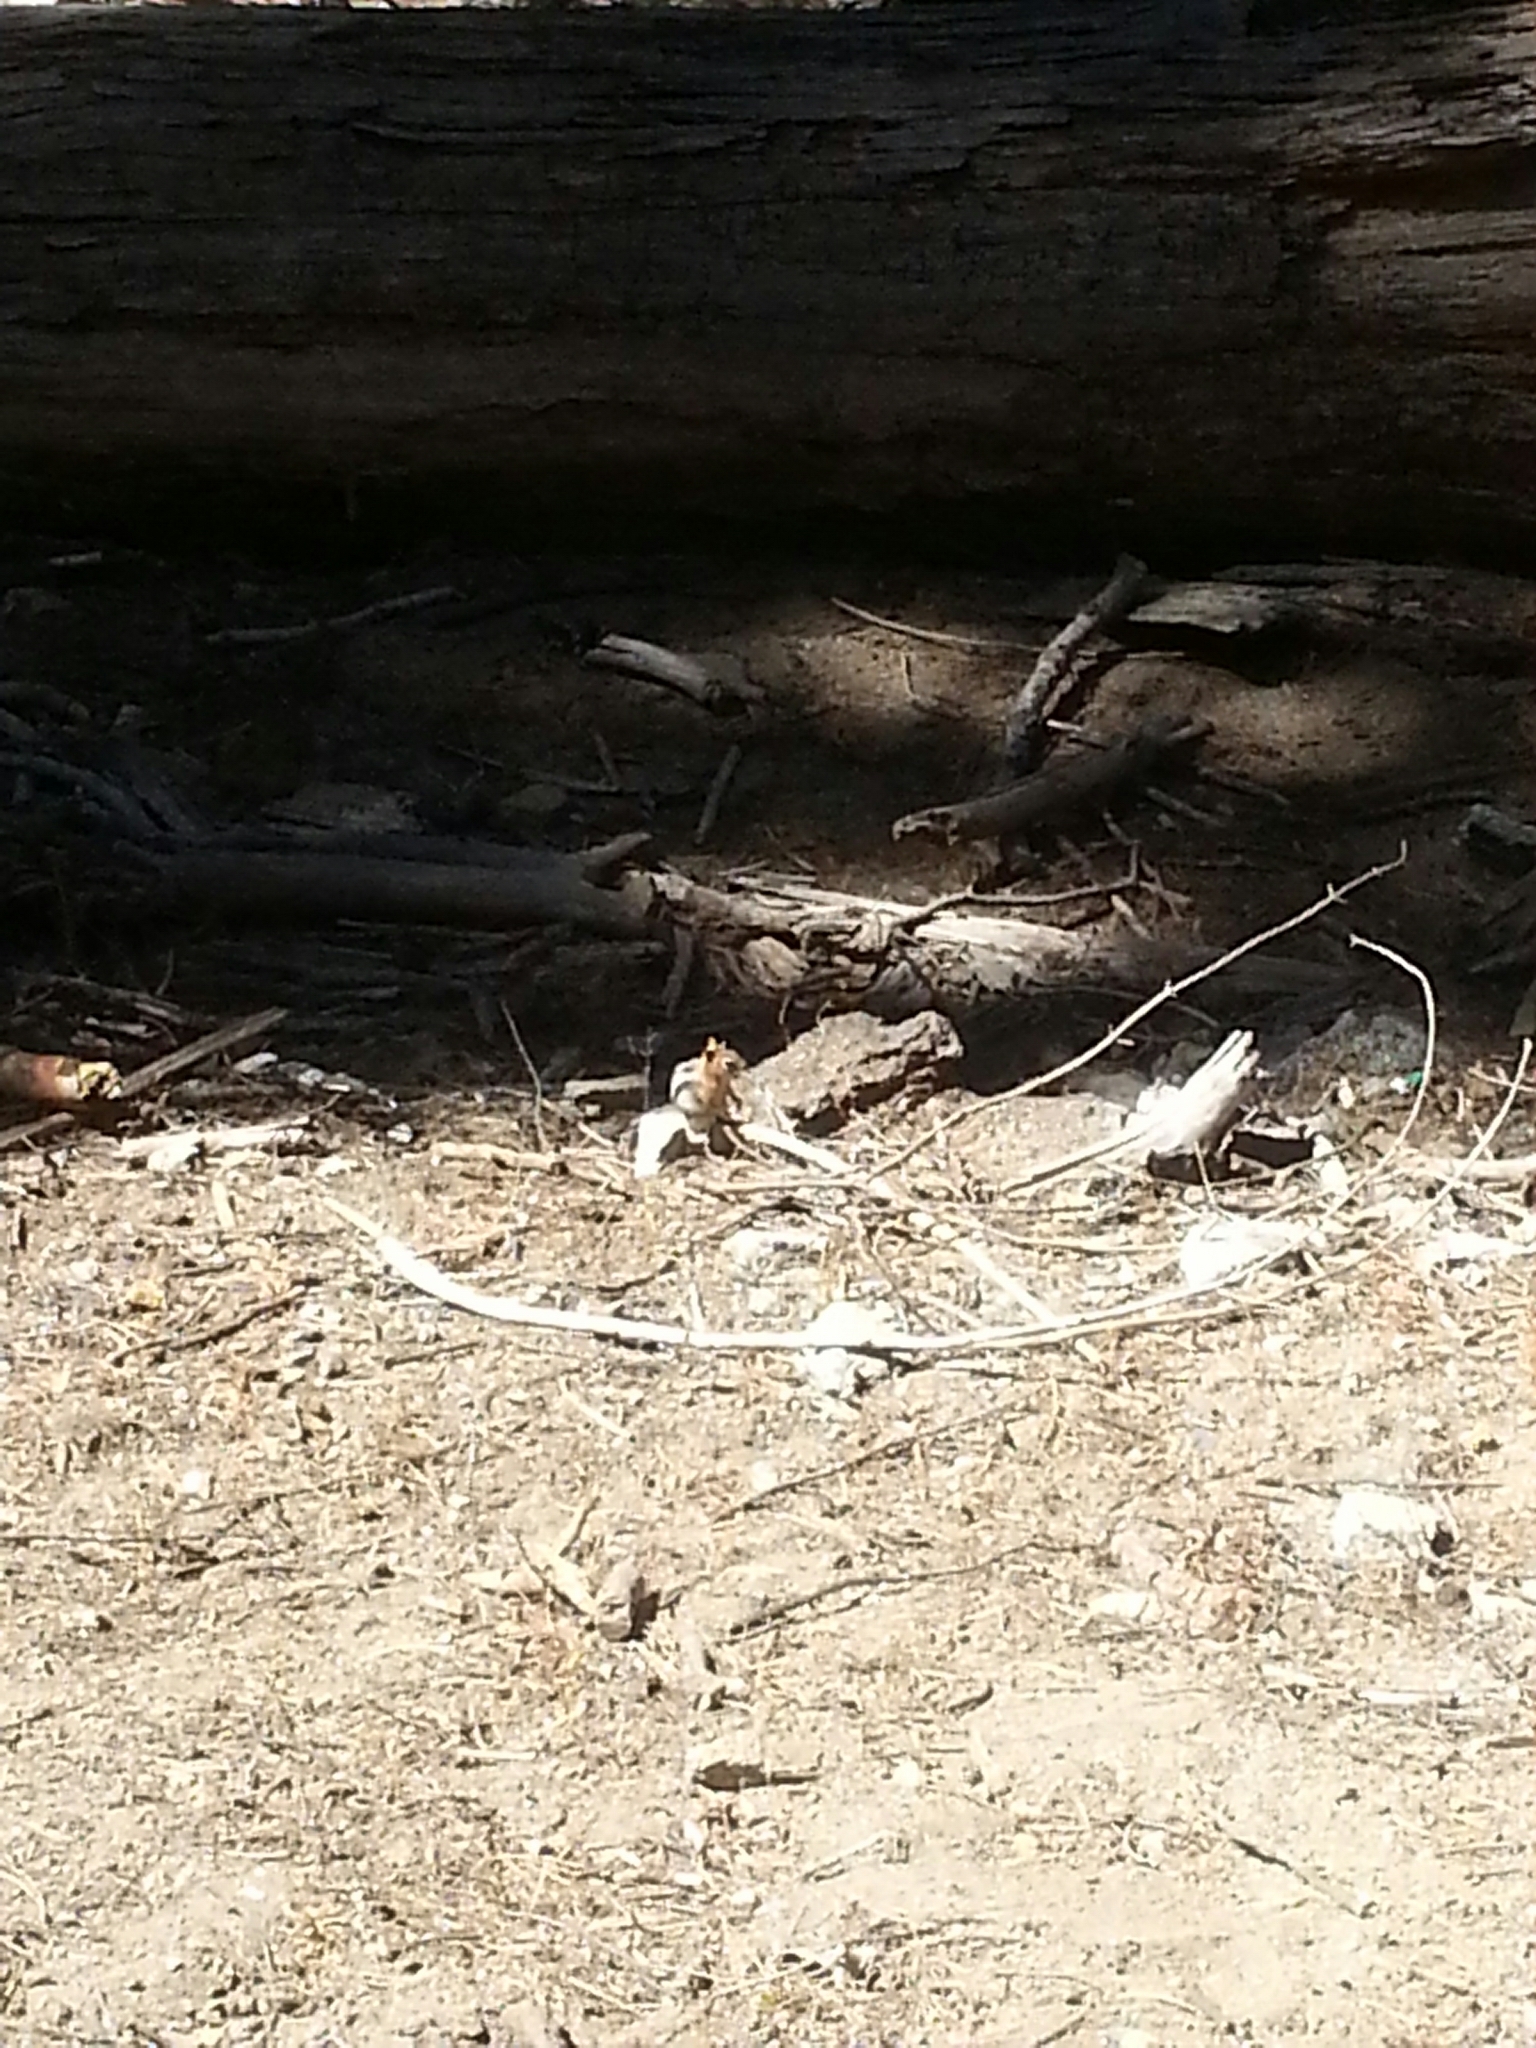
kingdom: Animalia
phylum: Chordata
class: Mammalia
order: Rodentia
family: Sciuridae
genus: Callospermophilus
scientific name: Callospermophilus lateralis
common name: Golden-mantled ground squirrel
